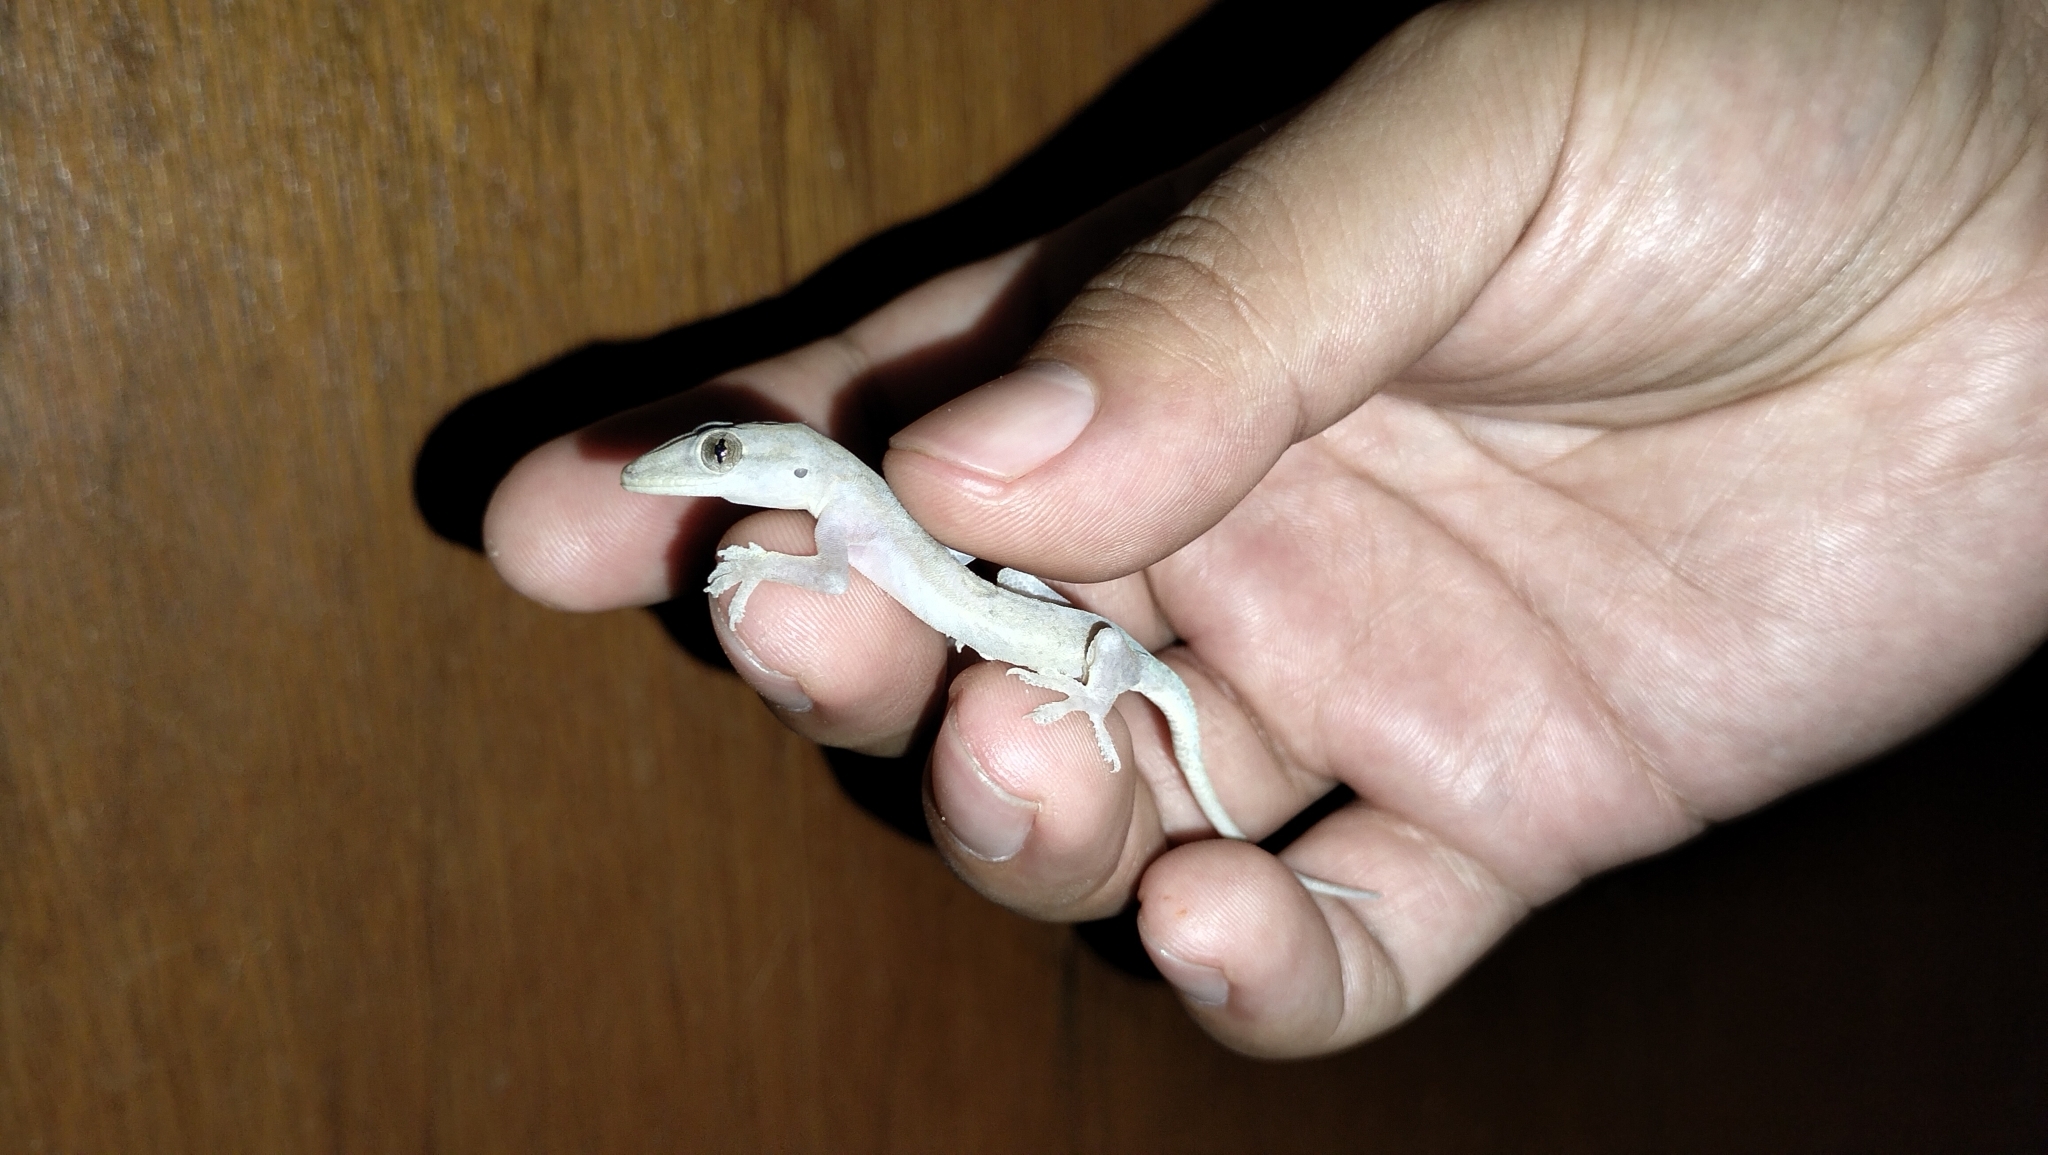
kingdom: Animalia
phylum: Chordata
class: Squamata
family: Gekkonidae
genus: Hemidactylus
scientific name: Hemidactylus frenatus
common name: Common house gecko
